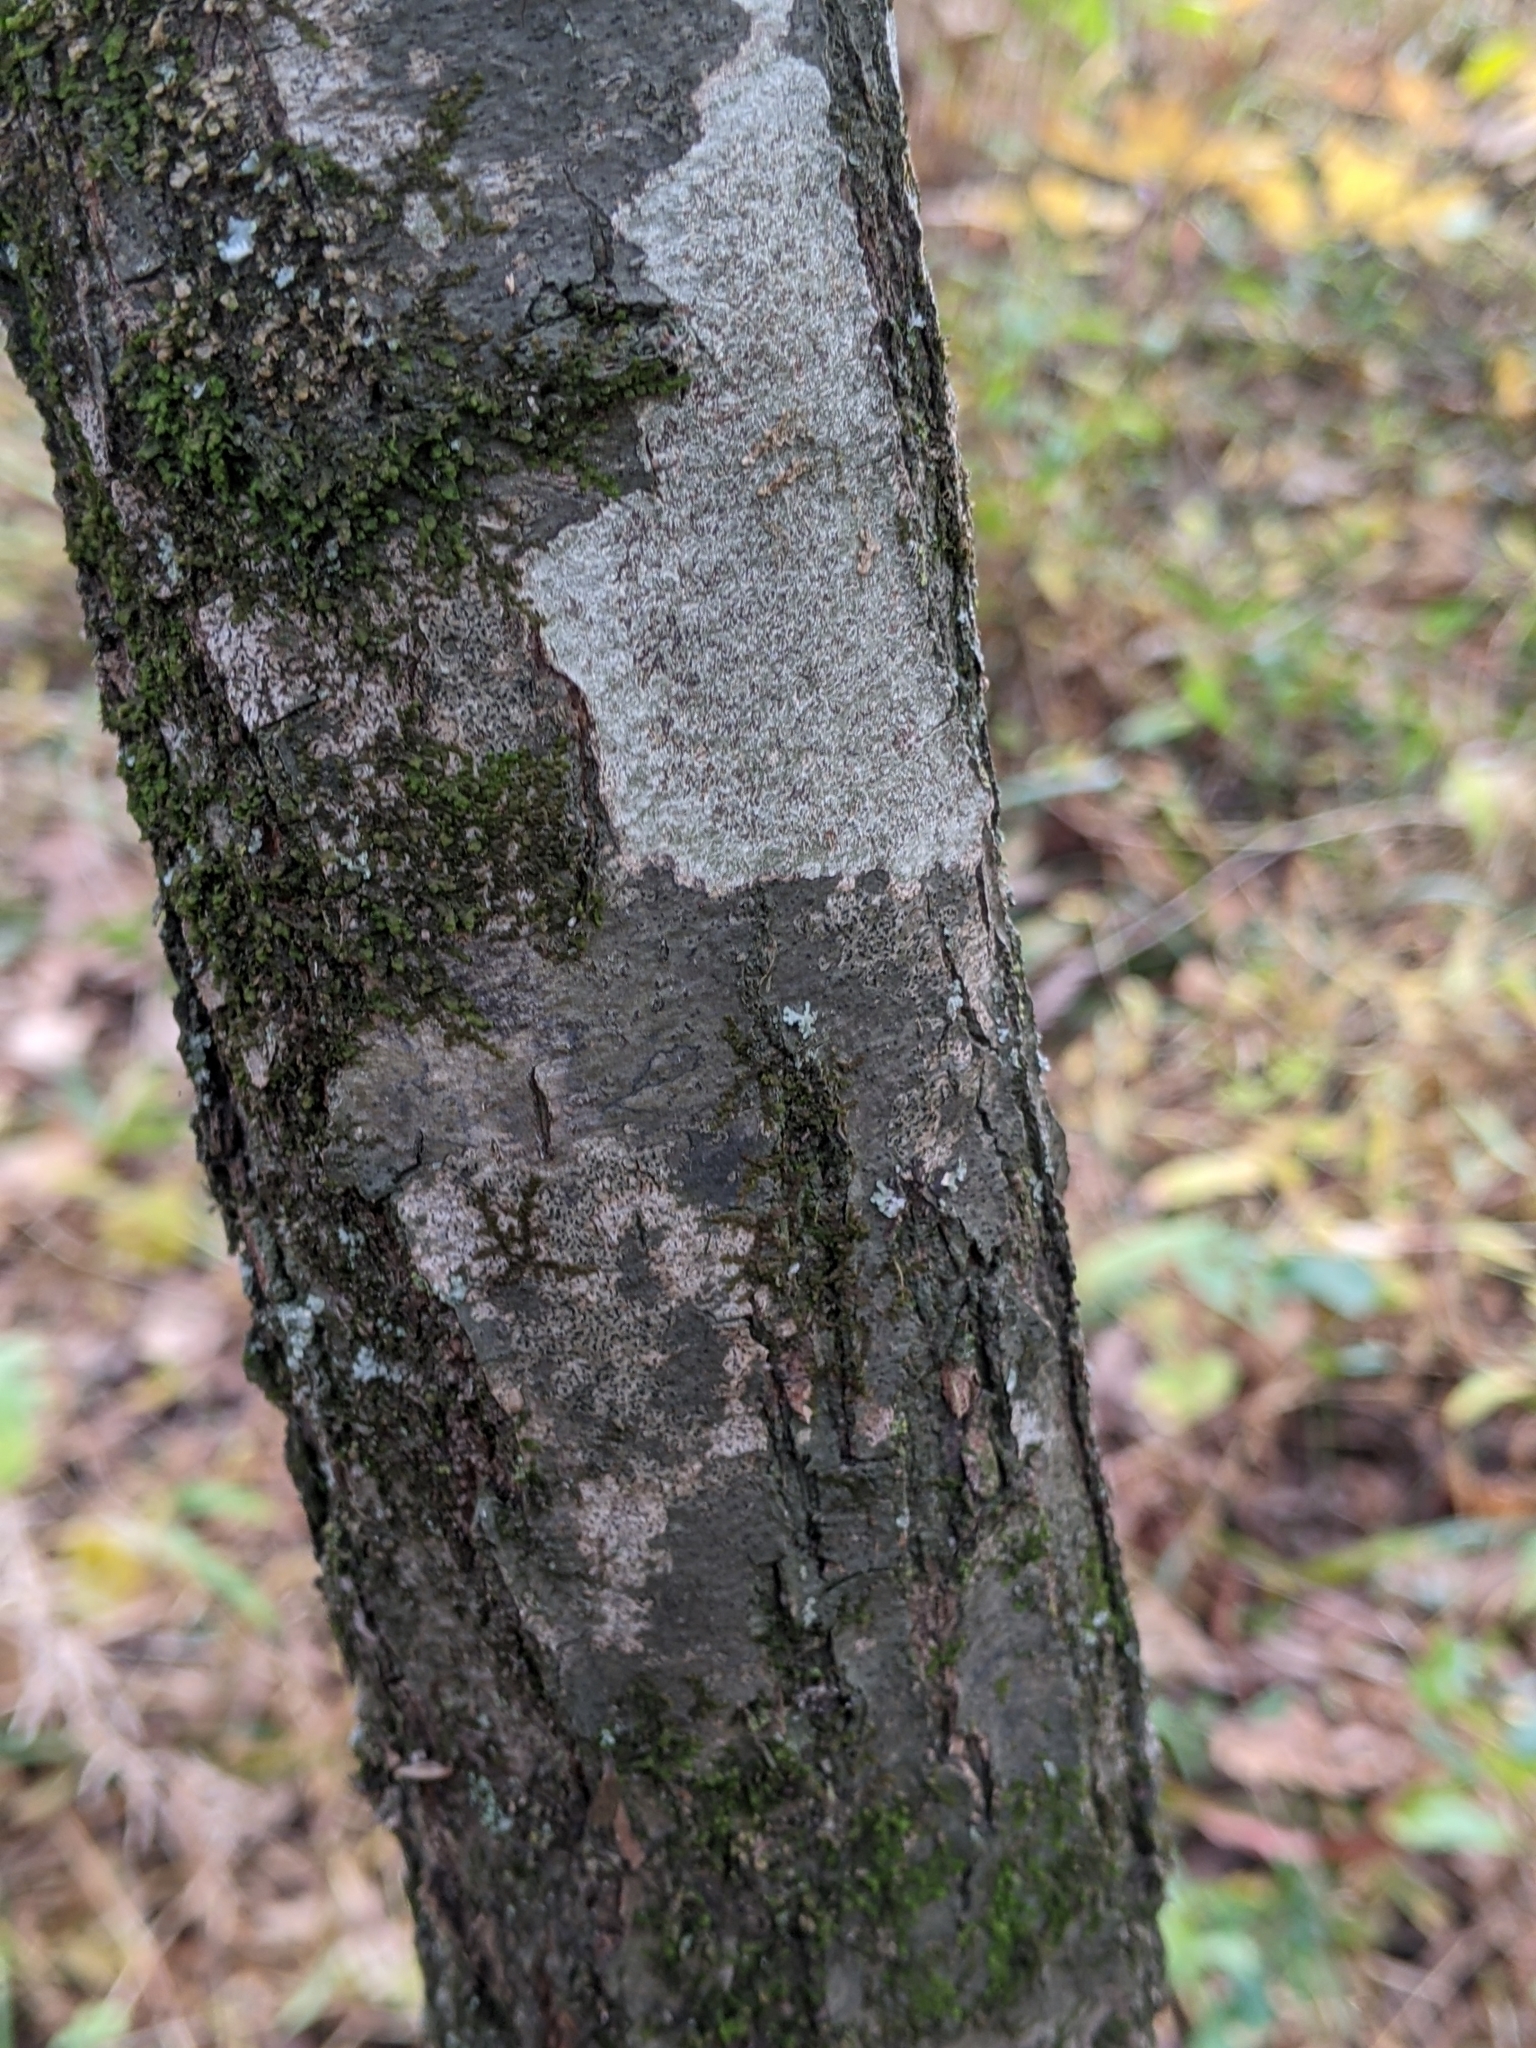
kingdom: Plantae
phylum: Tracheophyta
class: Magnoliopsida
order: Fagales
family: Fagaceae
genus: Quercus
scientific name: Quercus imbricaria
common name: Shingle oak
